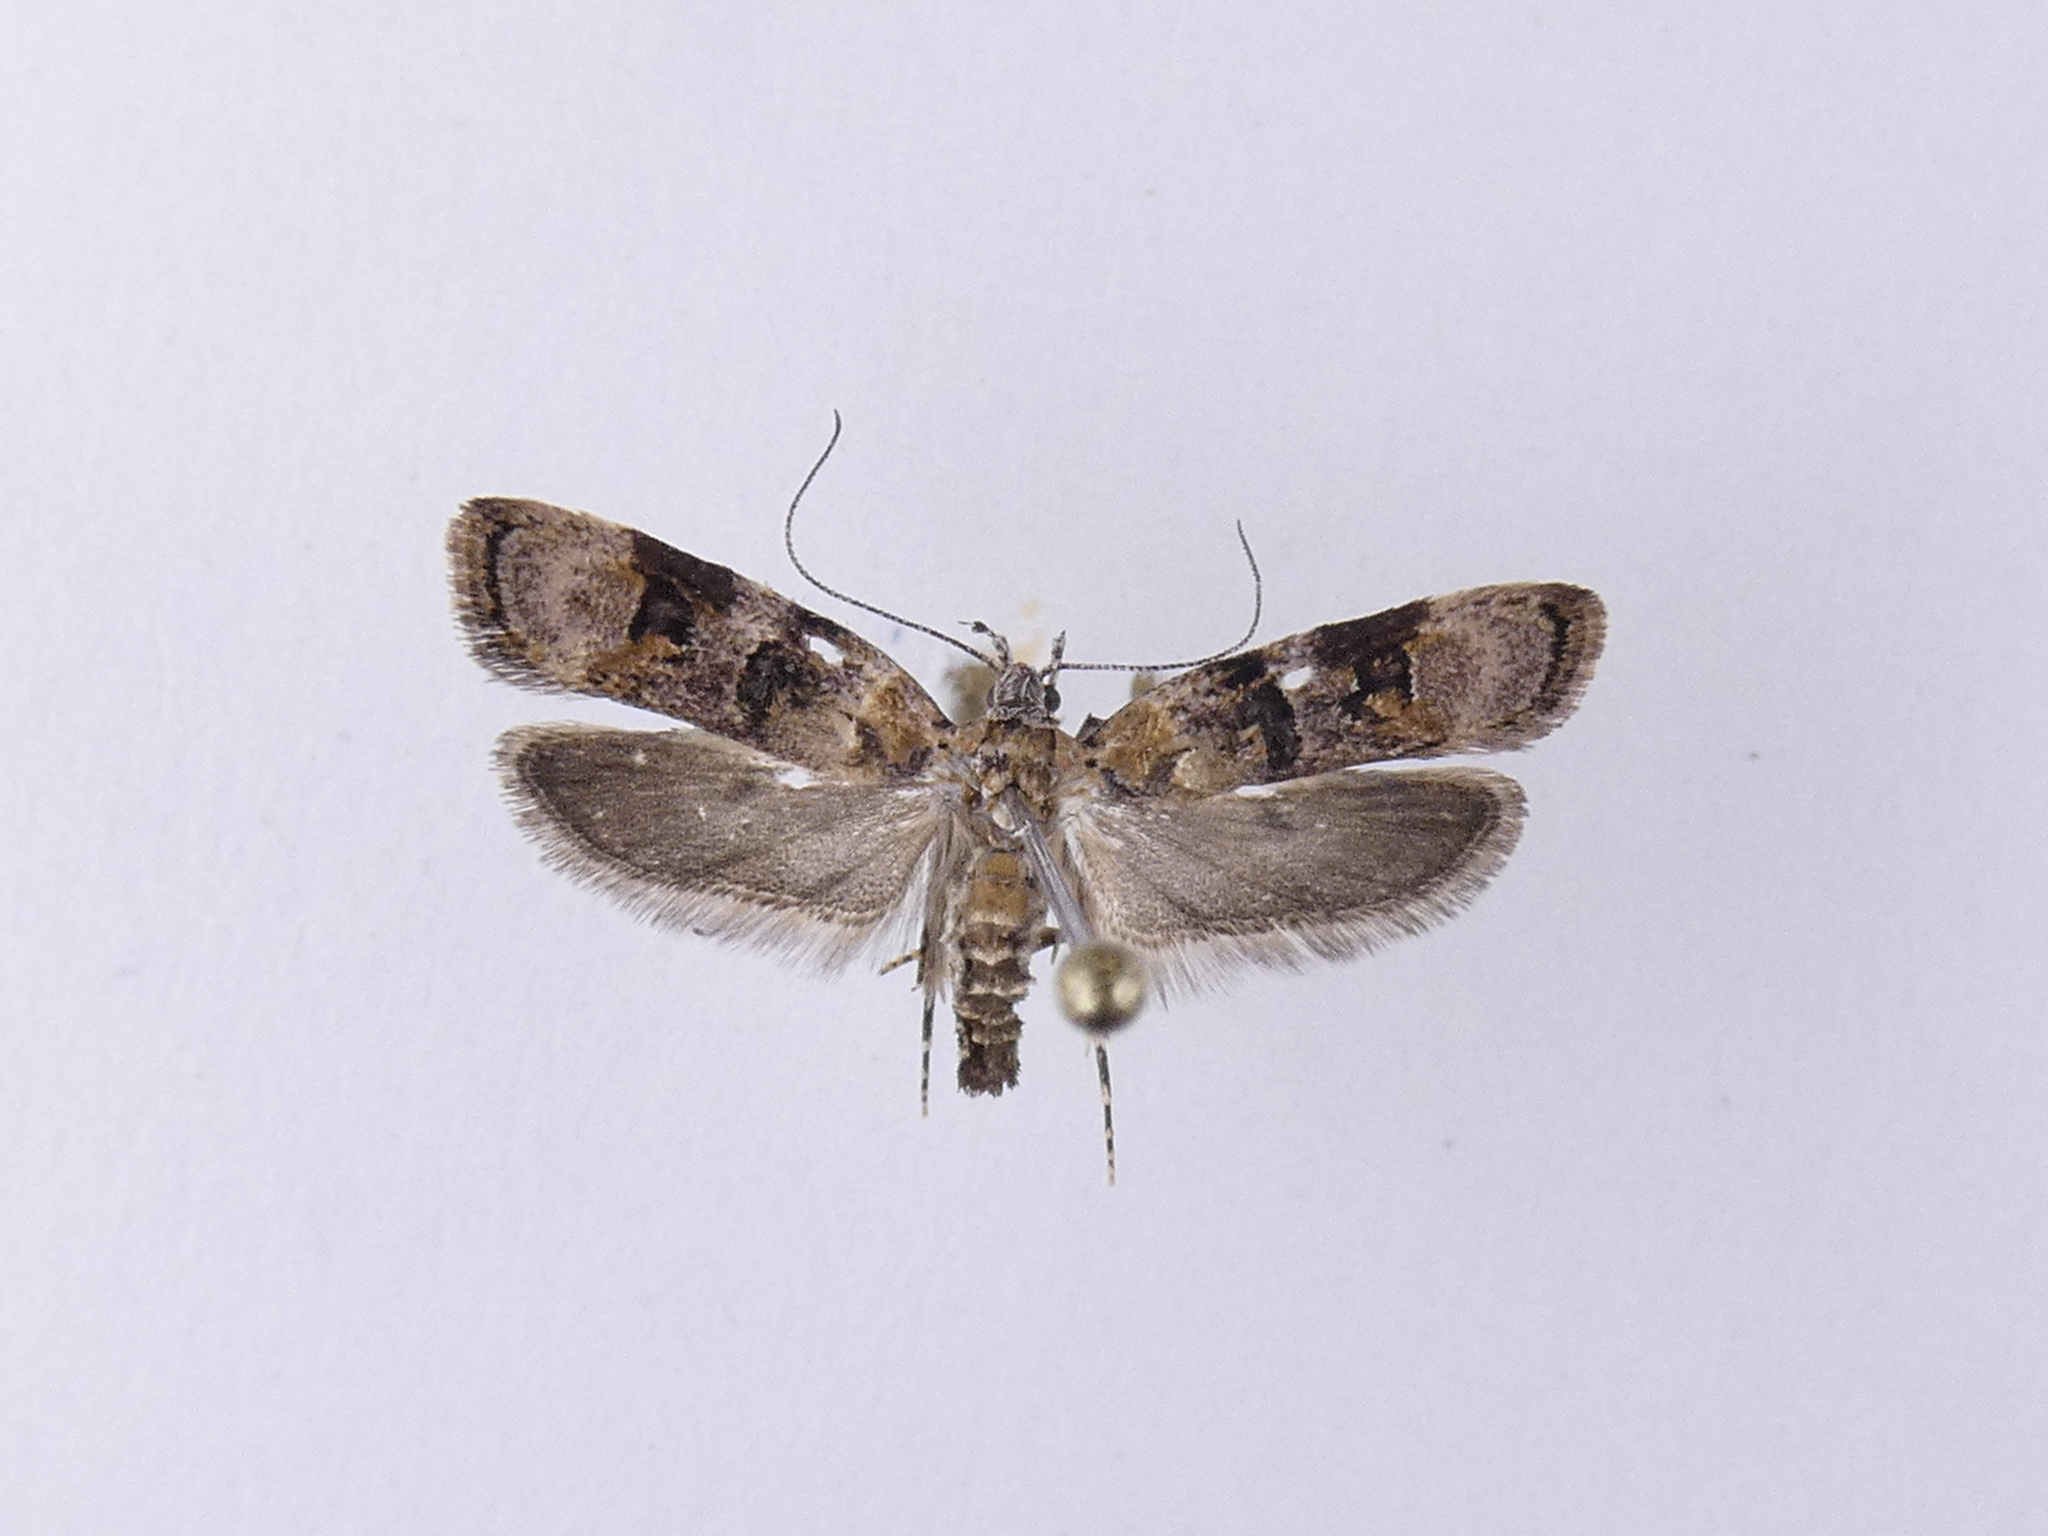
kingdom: Animalia
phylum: Arthropoda
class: Insecta
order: Lepidoptera
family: Oecophoridae
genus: Izatha
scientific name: Izatha metadelta
